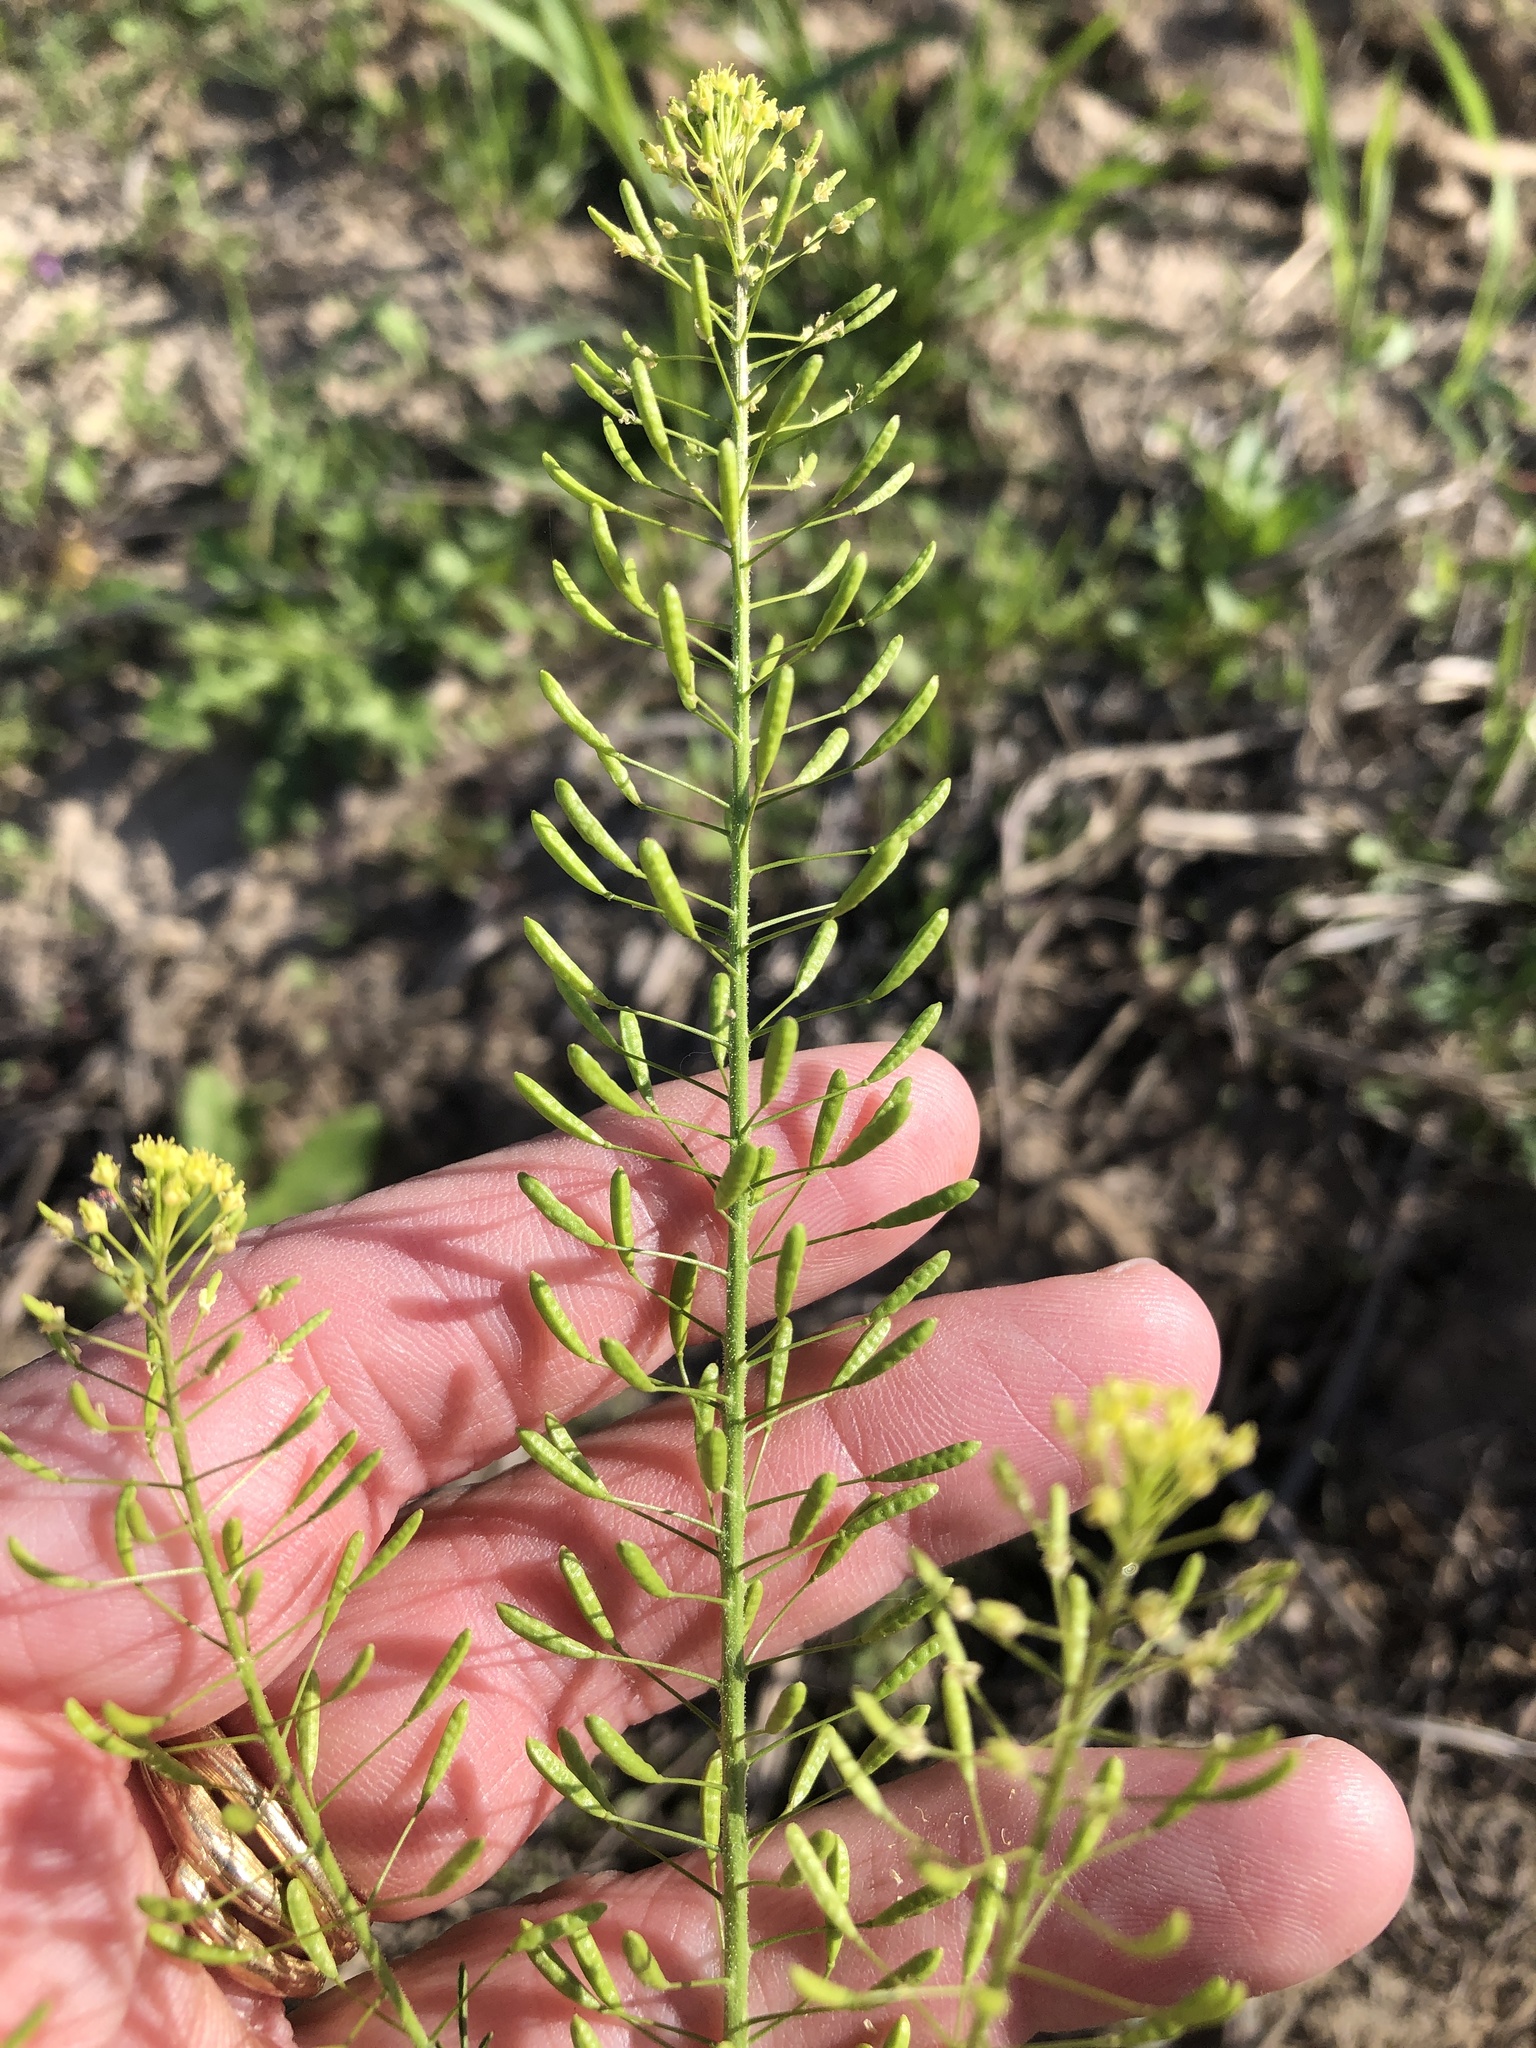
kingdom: Plantae
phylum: Tracheophyta
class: Magnoliopsida
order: Brassicales
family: Brassicaceae
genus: Descurainia
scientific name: Descurainia pinnata
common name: Western tansy mustard
